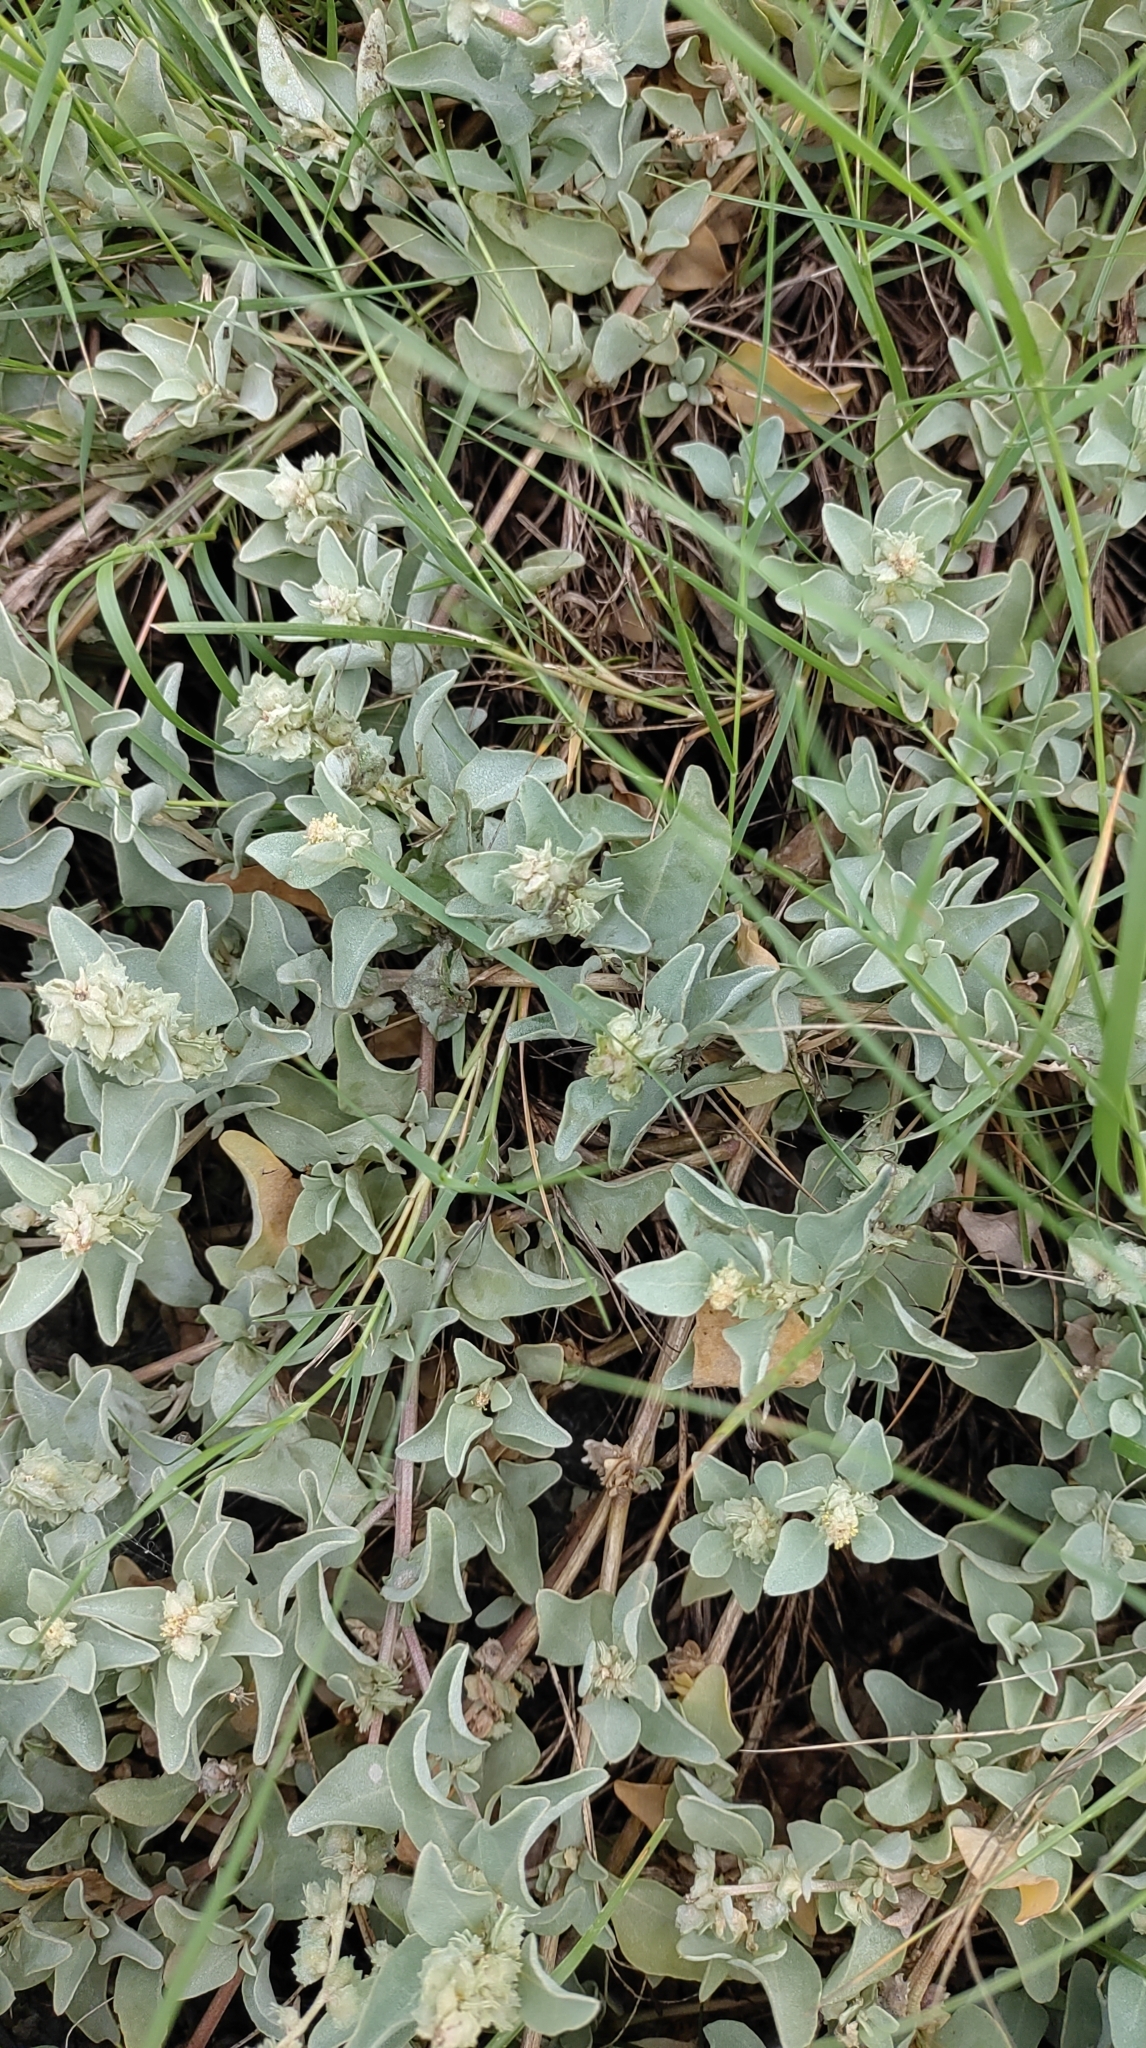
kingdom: Plantae
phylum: Tracheophyta
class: Magnoliopsida
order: Caryophyllales
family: Amaranthaceae
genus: Atriplex
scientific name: Atriplex maximowicziana
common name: Maximowicz's saltbush
